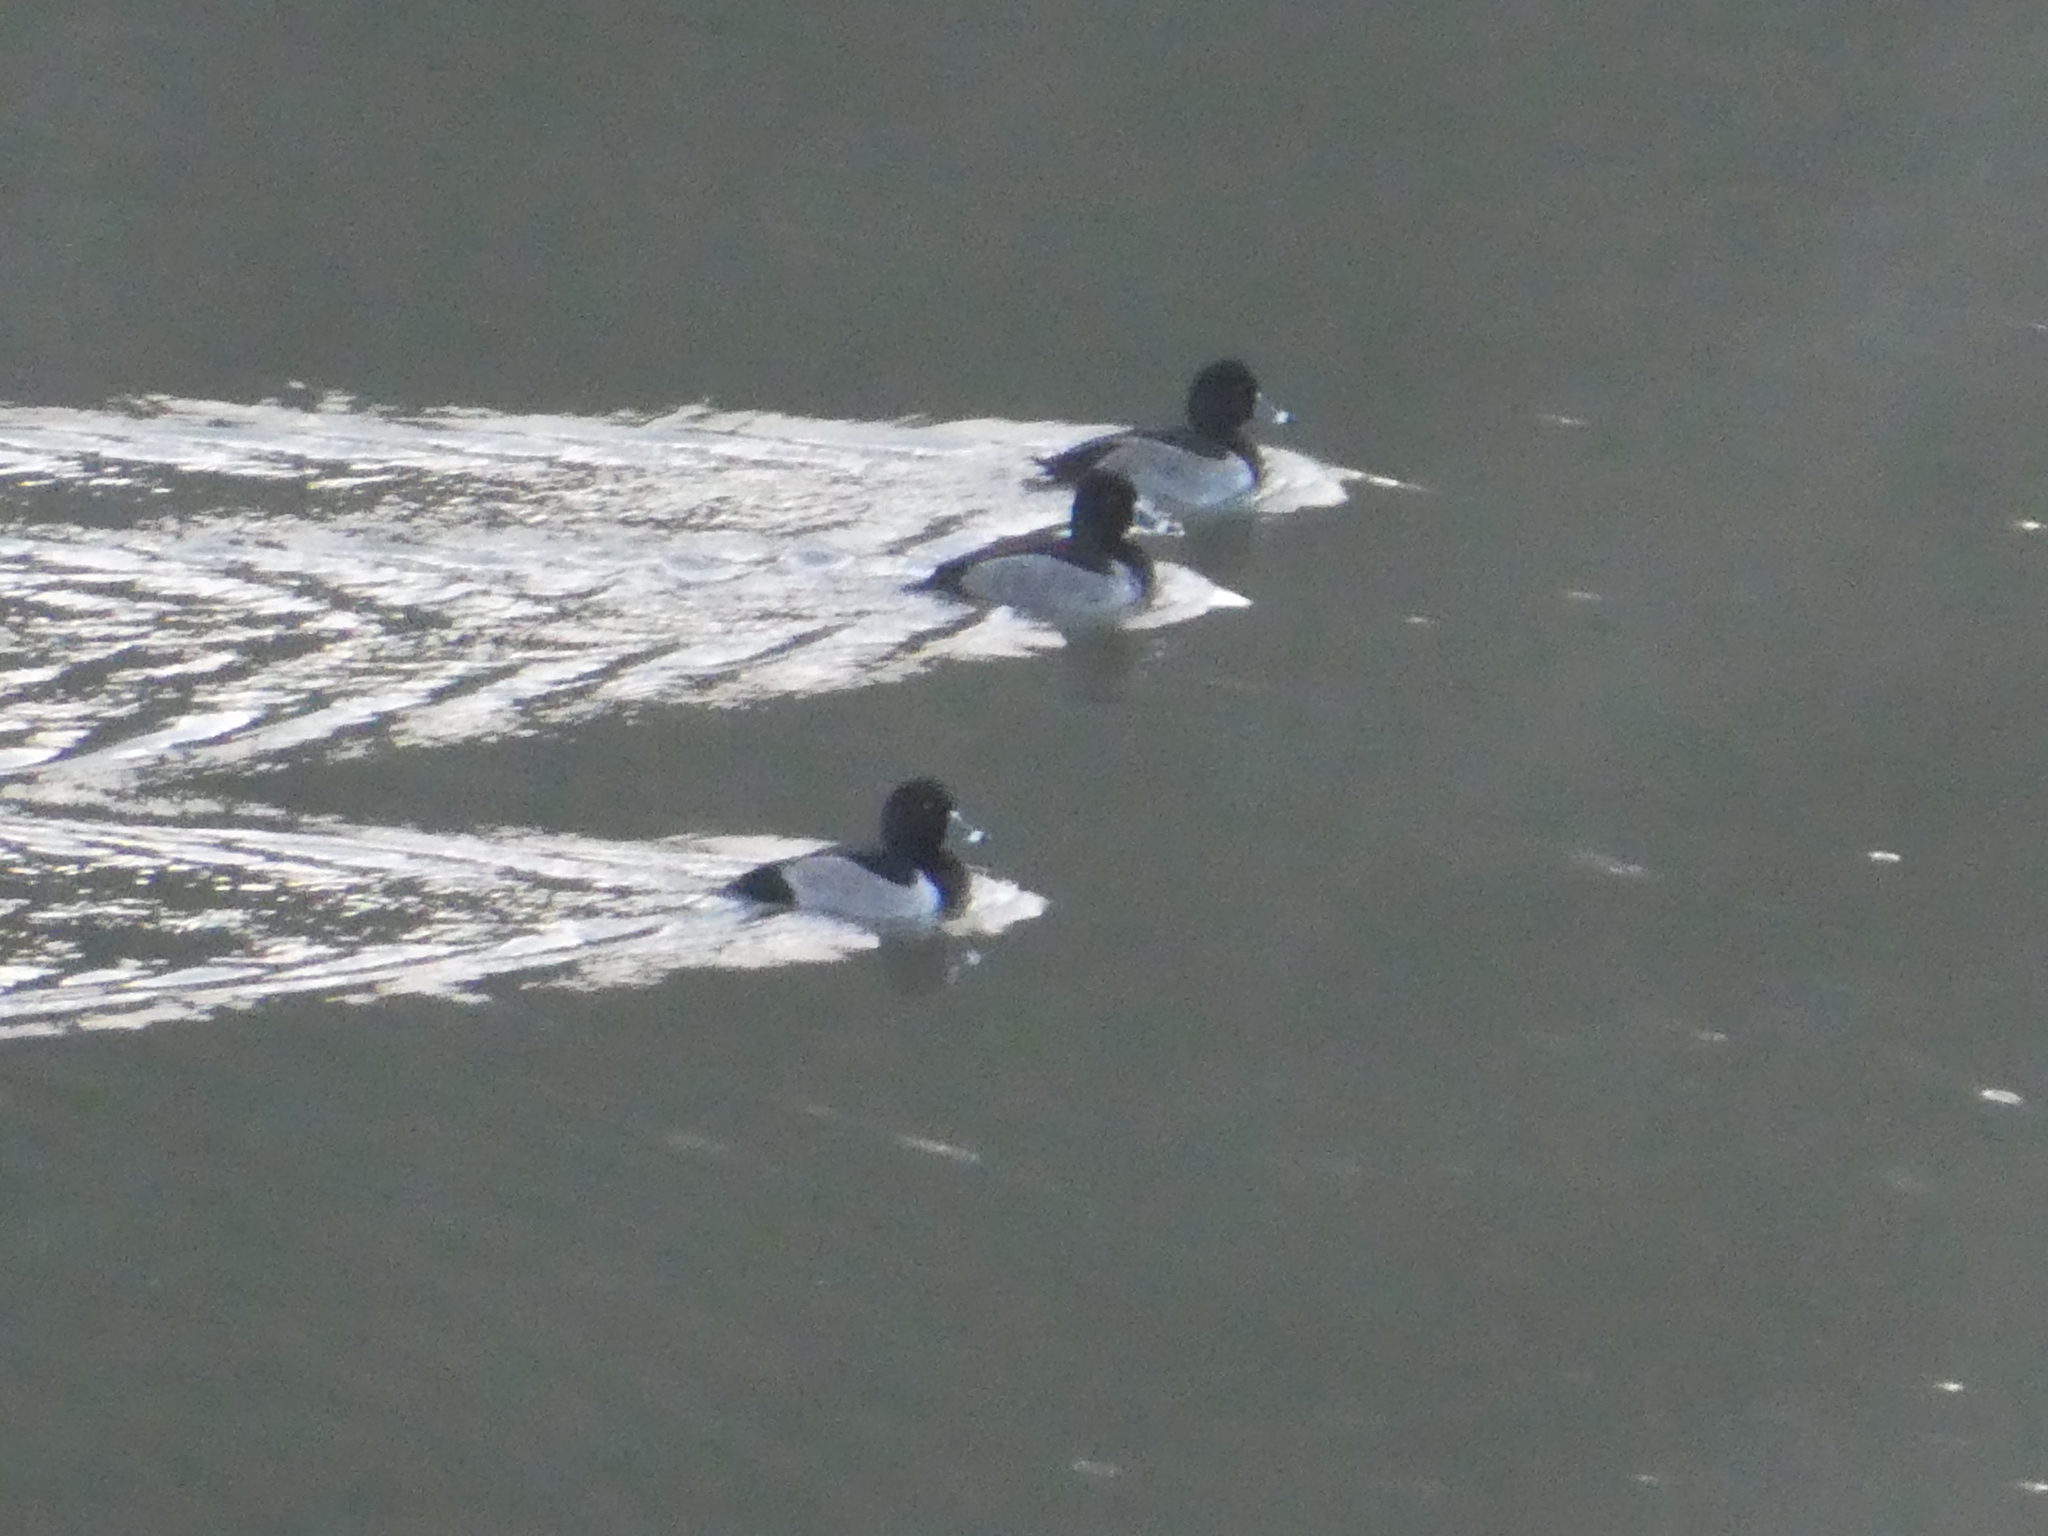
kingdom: Animalia
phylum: Chordata
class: Aves
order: Anseriformes
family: Anatidae
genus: Aythya
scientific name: Aythya collaris
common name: Ring-necked duck
